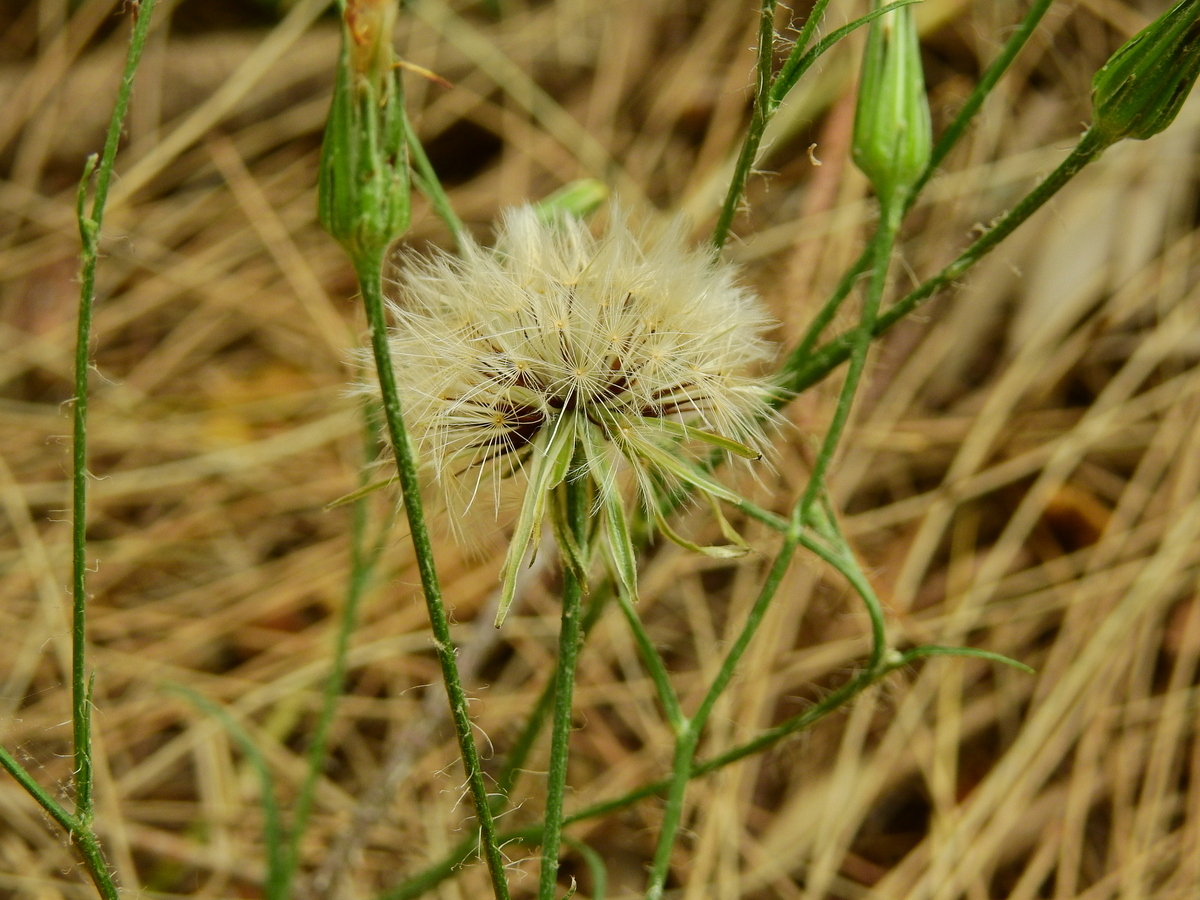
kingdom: Plantae
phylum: Tracheophyta
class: Magnoliopsida
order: Asterales
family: Asteraceae
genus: Hypochaeris
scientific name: Hypochaeris albiflora
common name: White flatweed
